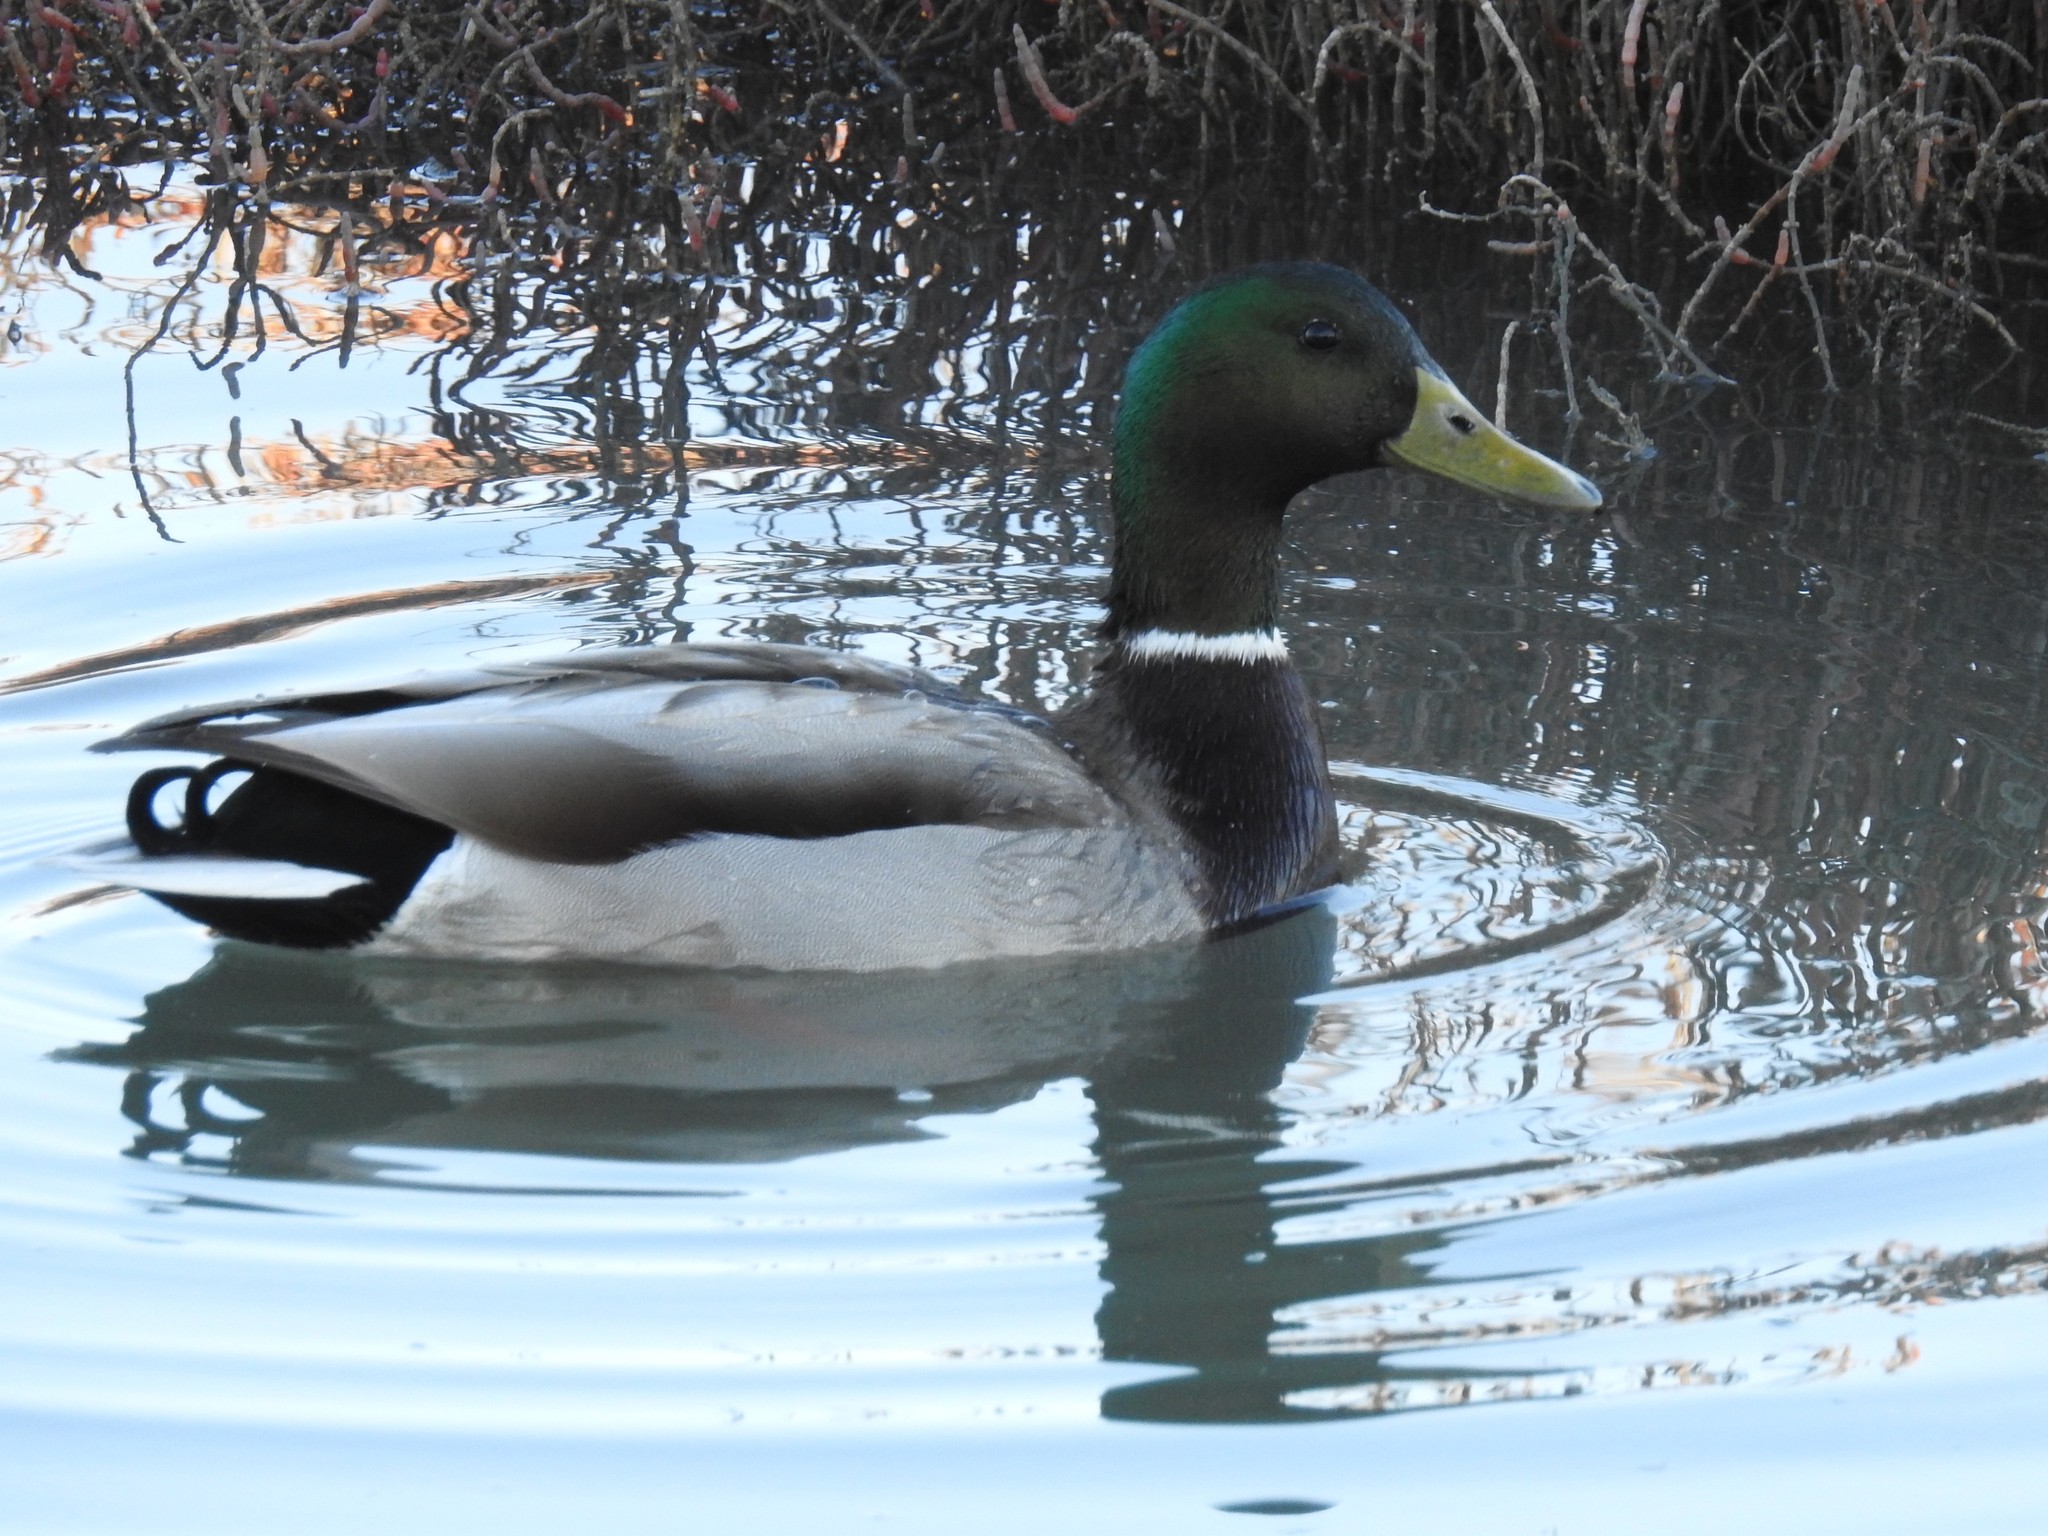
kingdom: Animalia
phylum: Chordata
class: Aves
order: Anseriformes
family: Anatidae
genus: Anas
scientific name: Anas platyrhynchos
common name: Mallard
